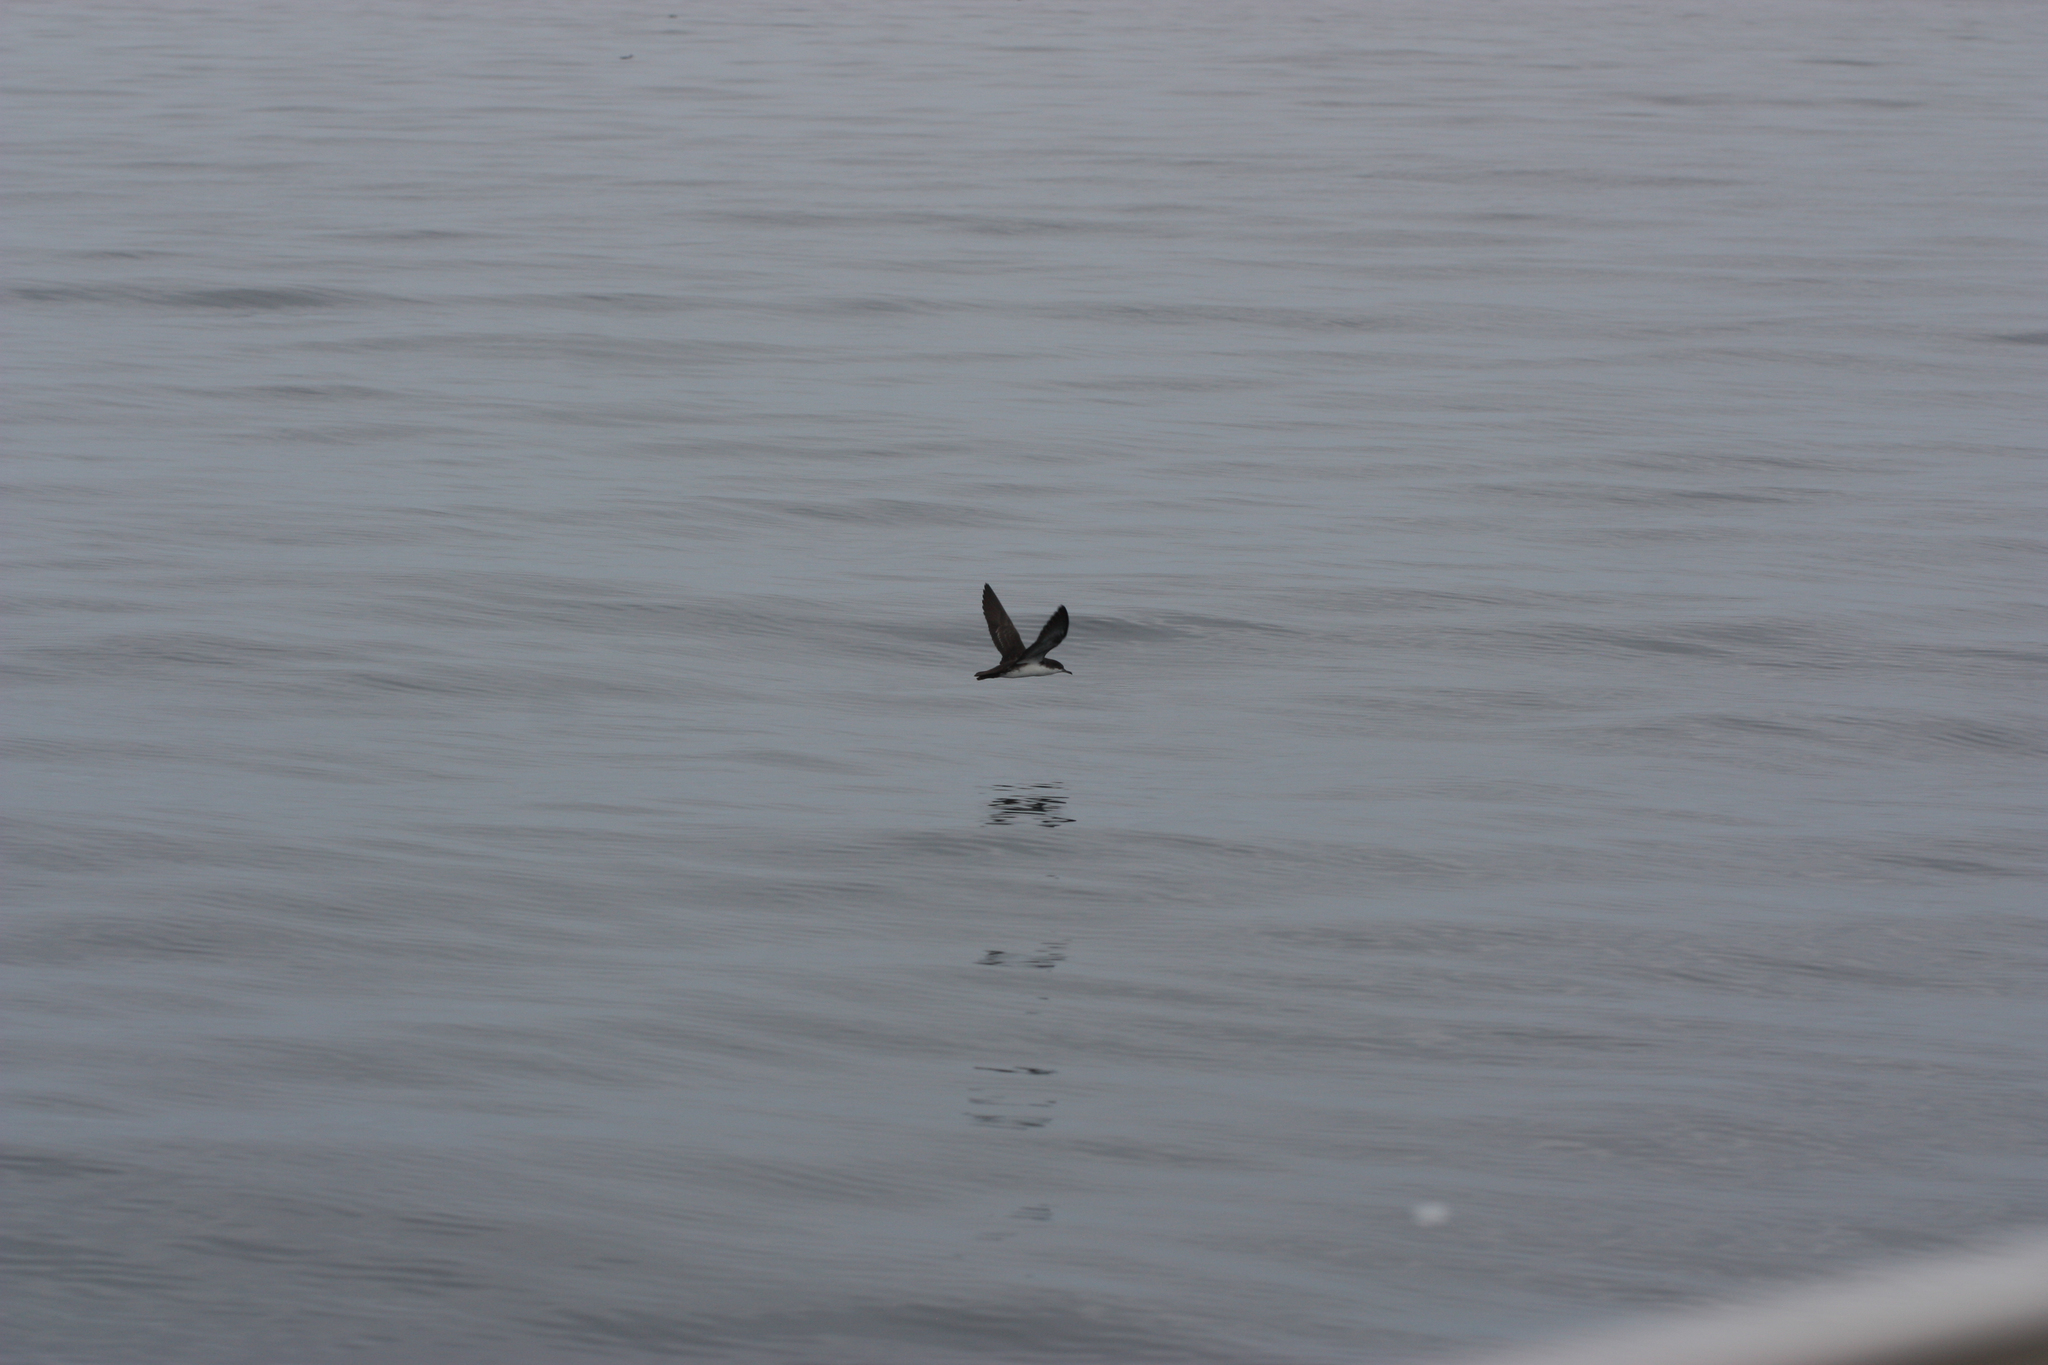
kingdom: Animalia
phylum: Chordata
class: Aves
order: Procellariiformes
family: Procellariidae
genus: Puffinus
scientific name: Puffinus subalaris
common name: Galapagos shearwater
